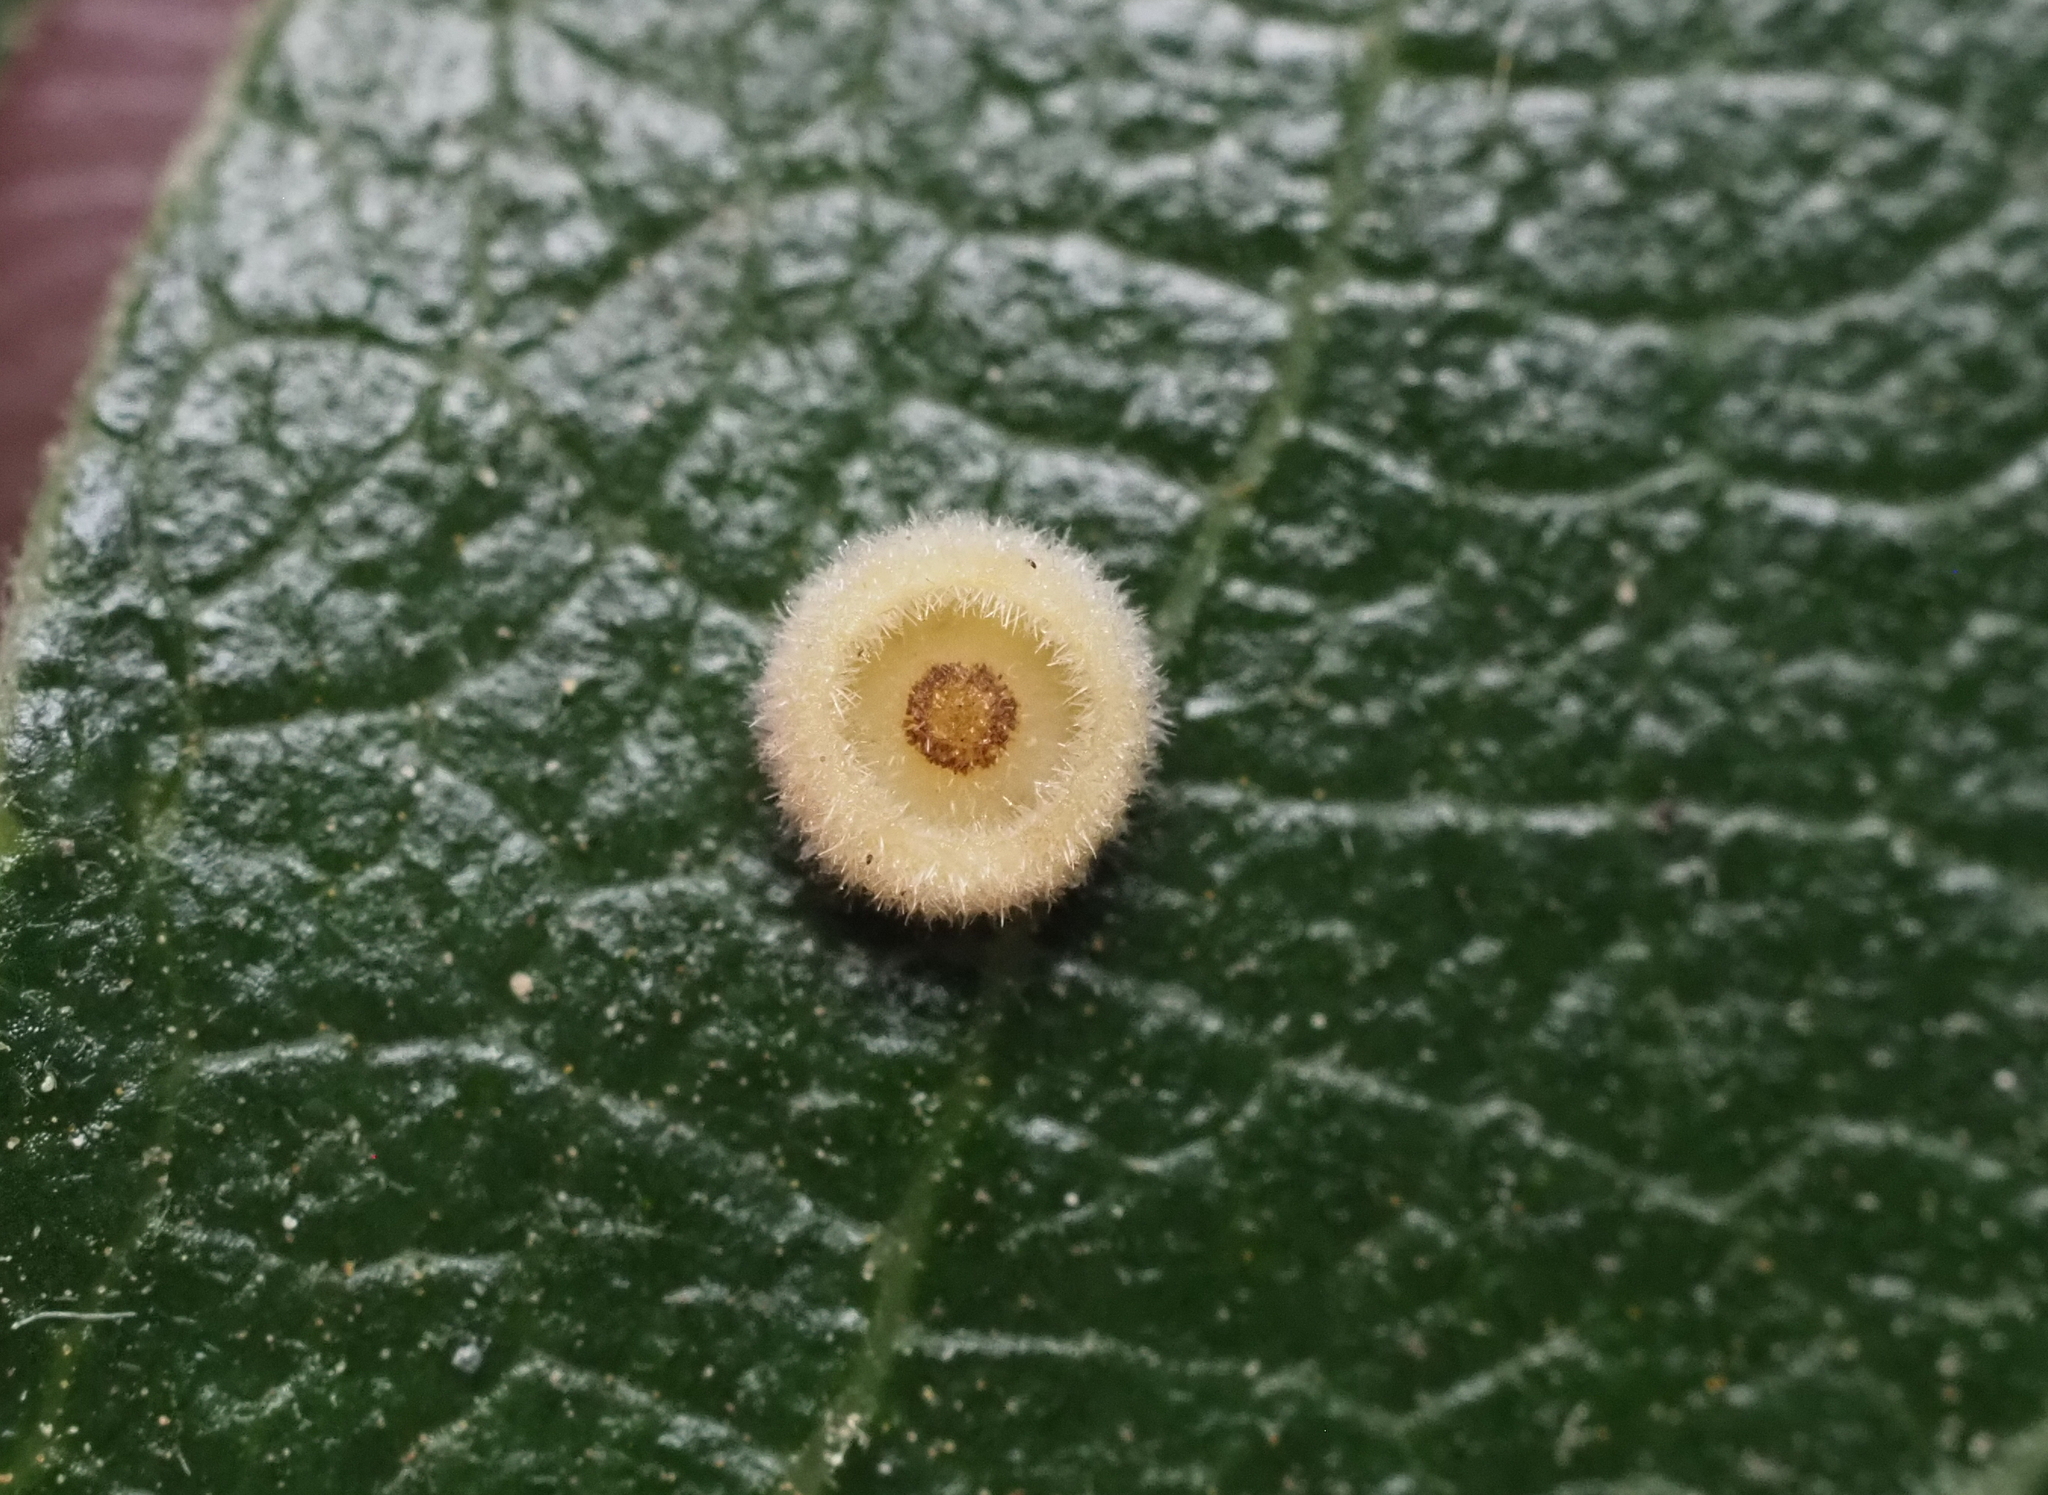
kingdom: Animalia
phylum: Arthropoda
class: Insecta
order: Hymenoptera
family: Cynipidae
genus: Andricus
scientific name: Andricus
